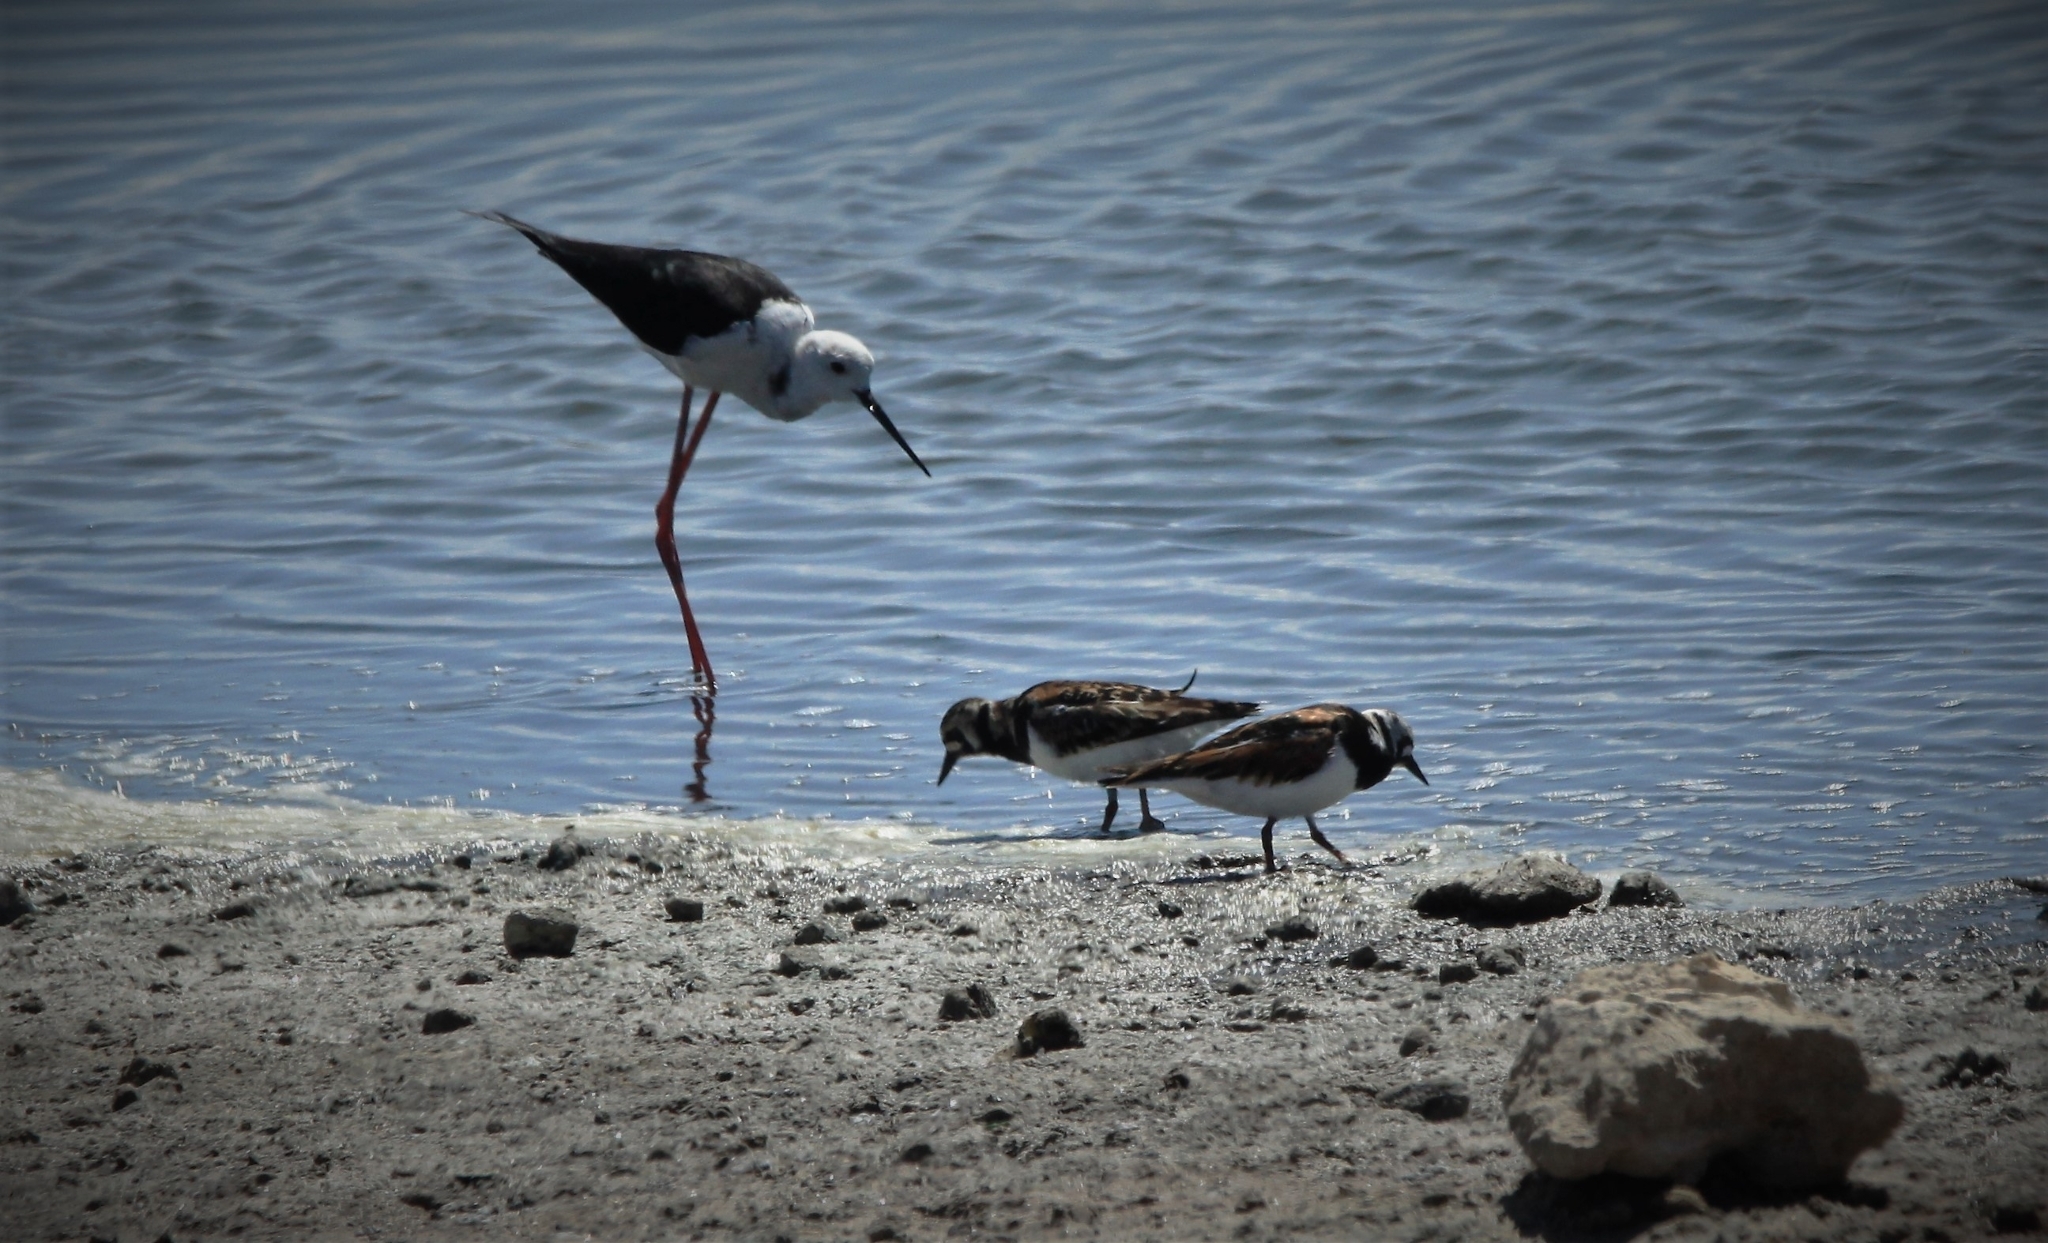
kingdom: Animalia
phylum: Chordata
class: Aves
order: Charadriiformes
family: Scolopacidae
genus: Arenaria
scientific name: Arenaria interpres
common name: Ruddy turnstone
